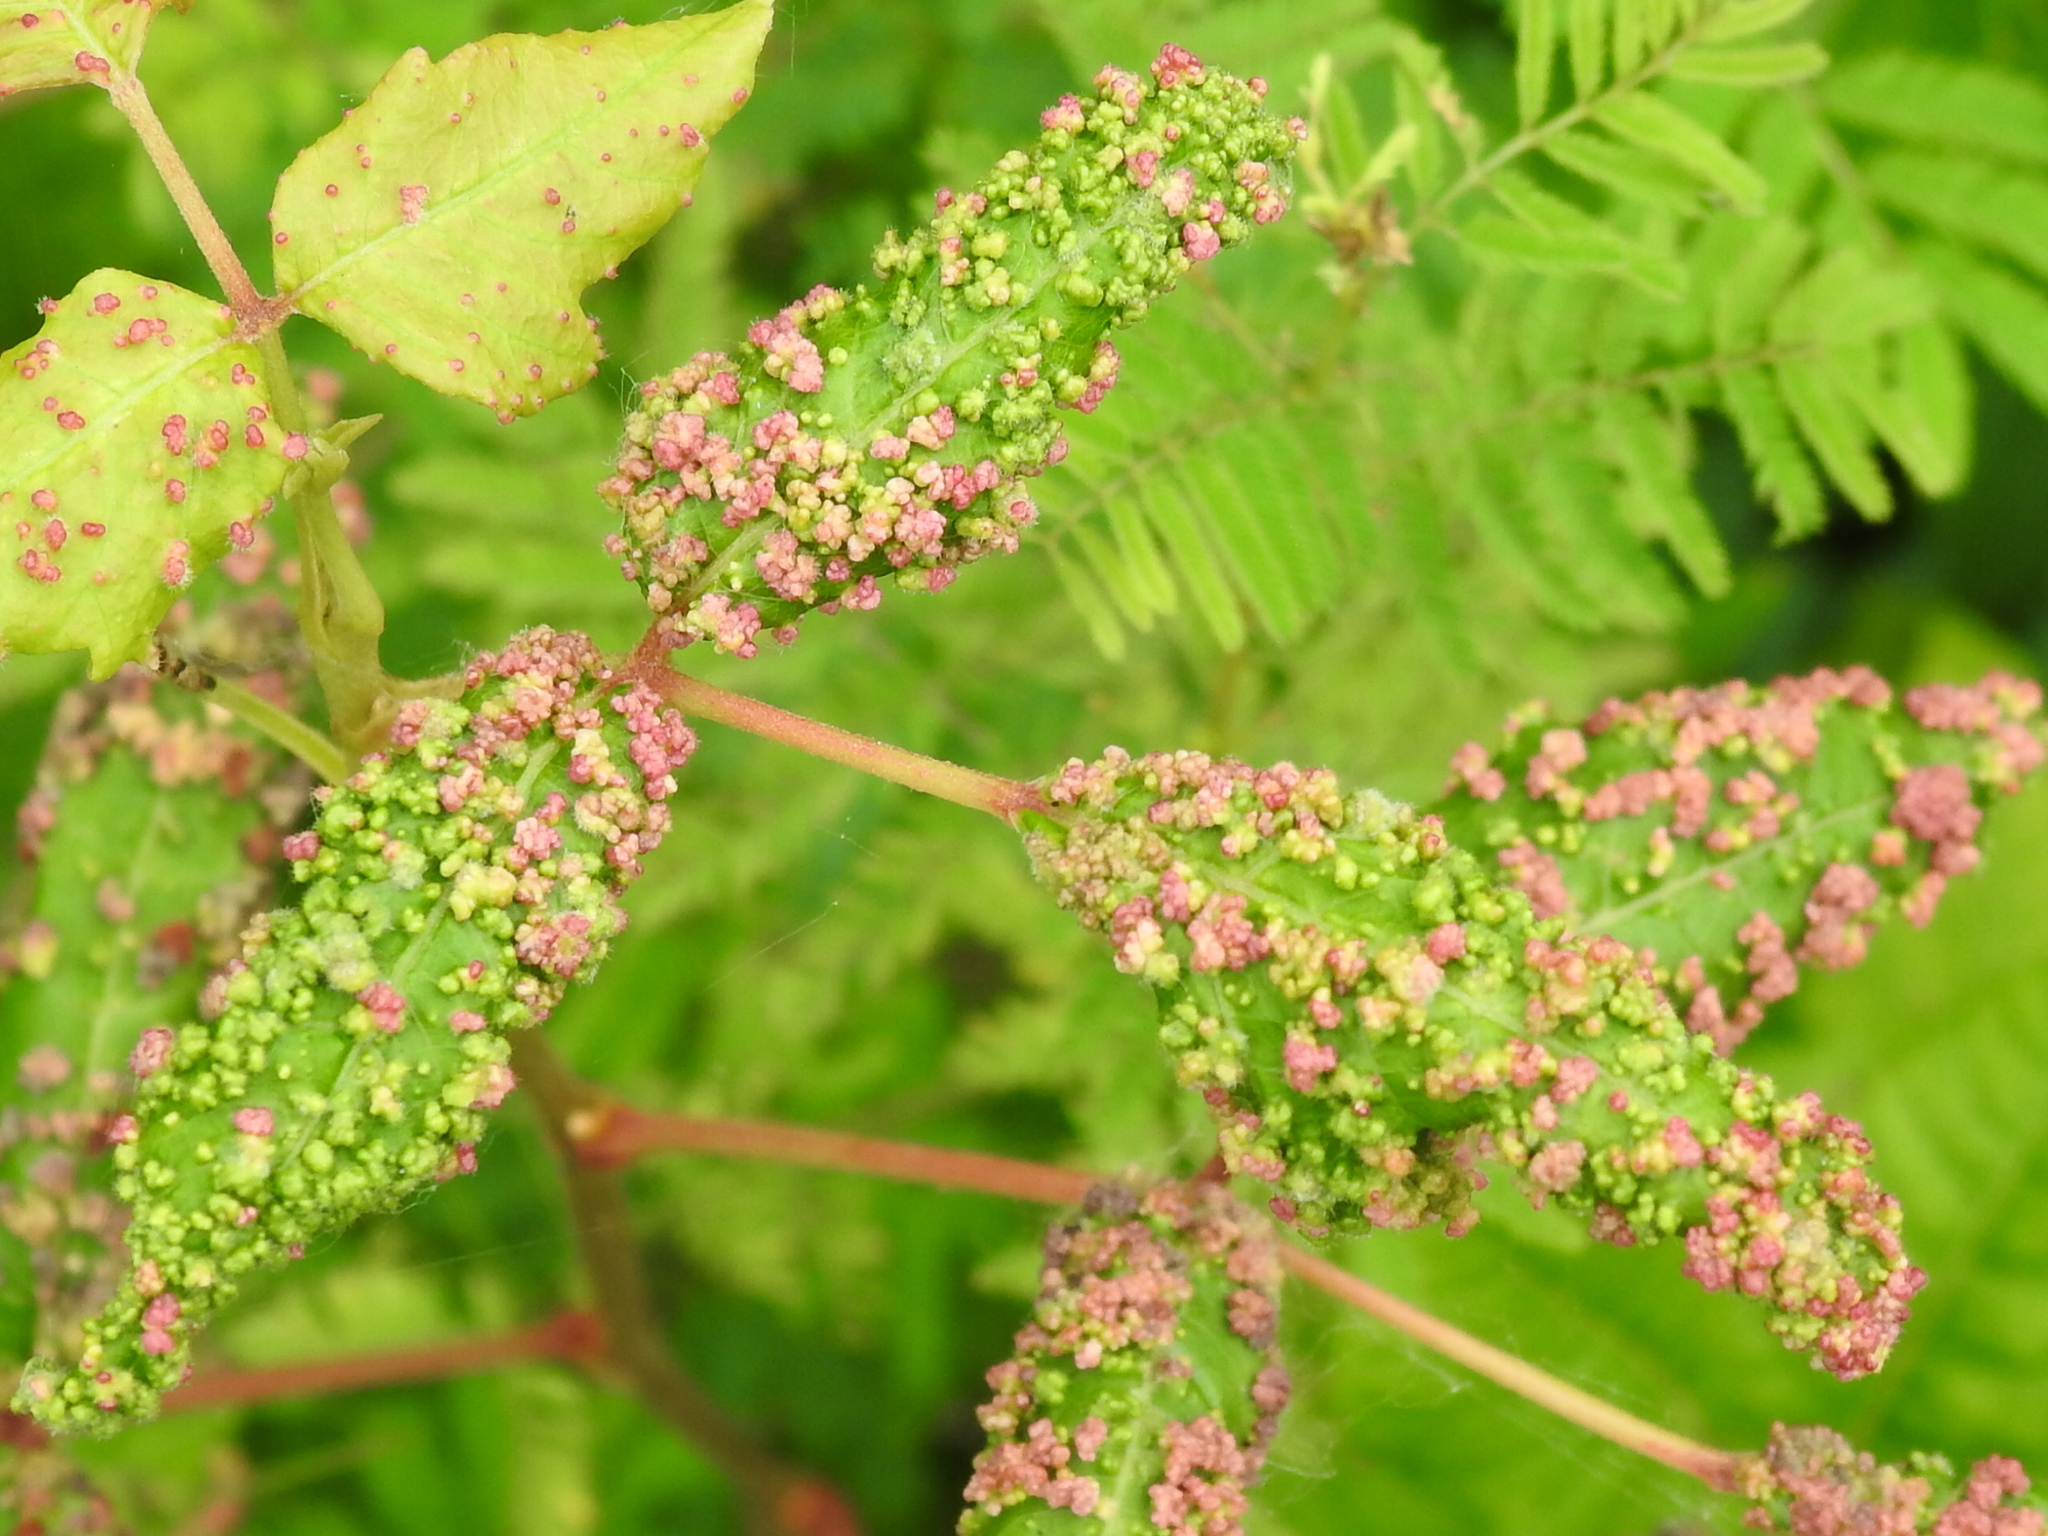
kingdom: Animalia
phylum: Arthropoda
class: Arachnida
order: Trombidiformes
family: Eriophyidae
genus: Aculops
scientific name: Aculops
